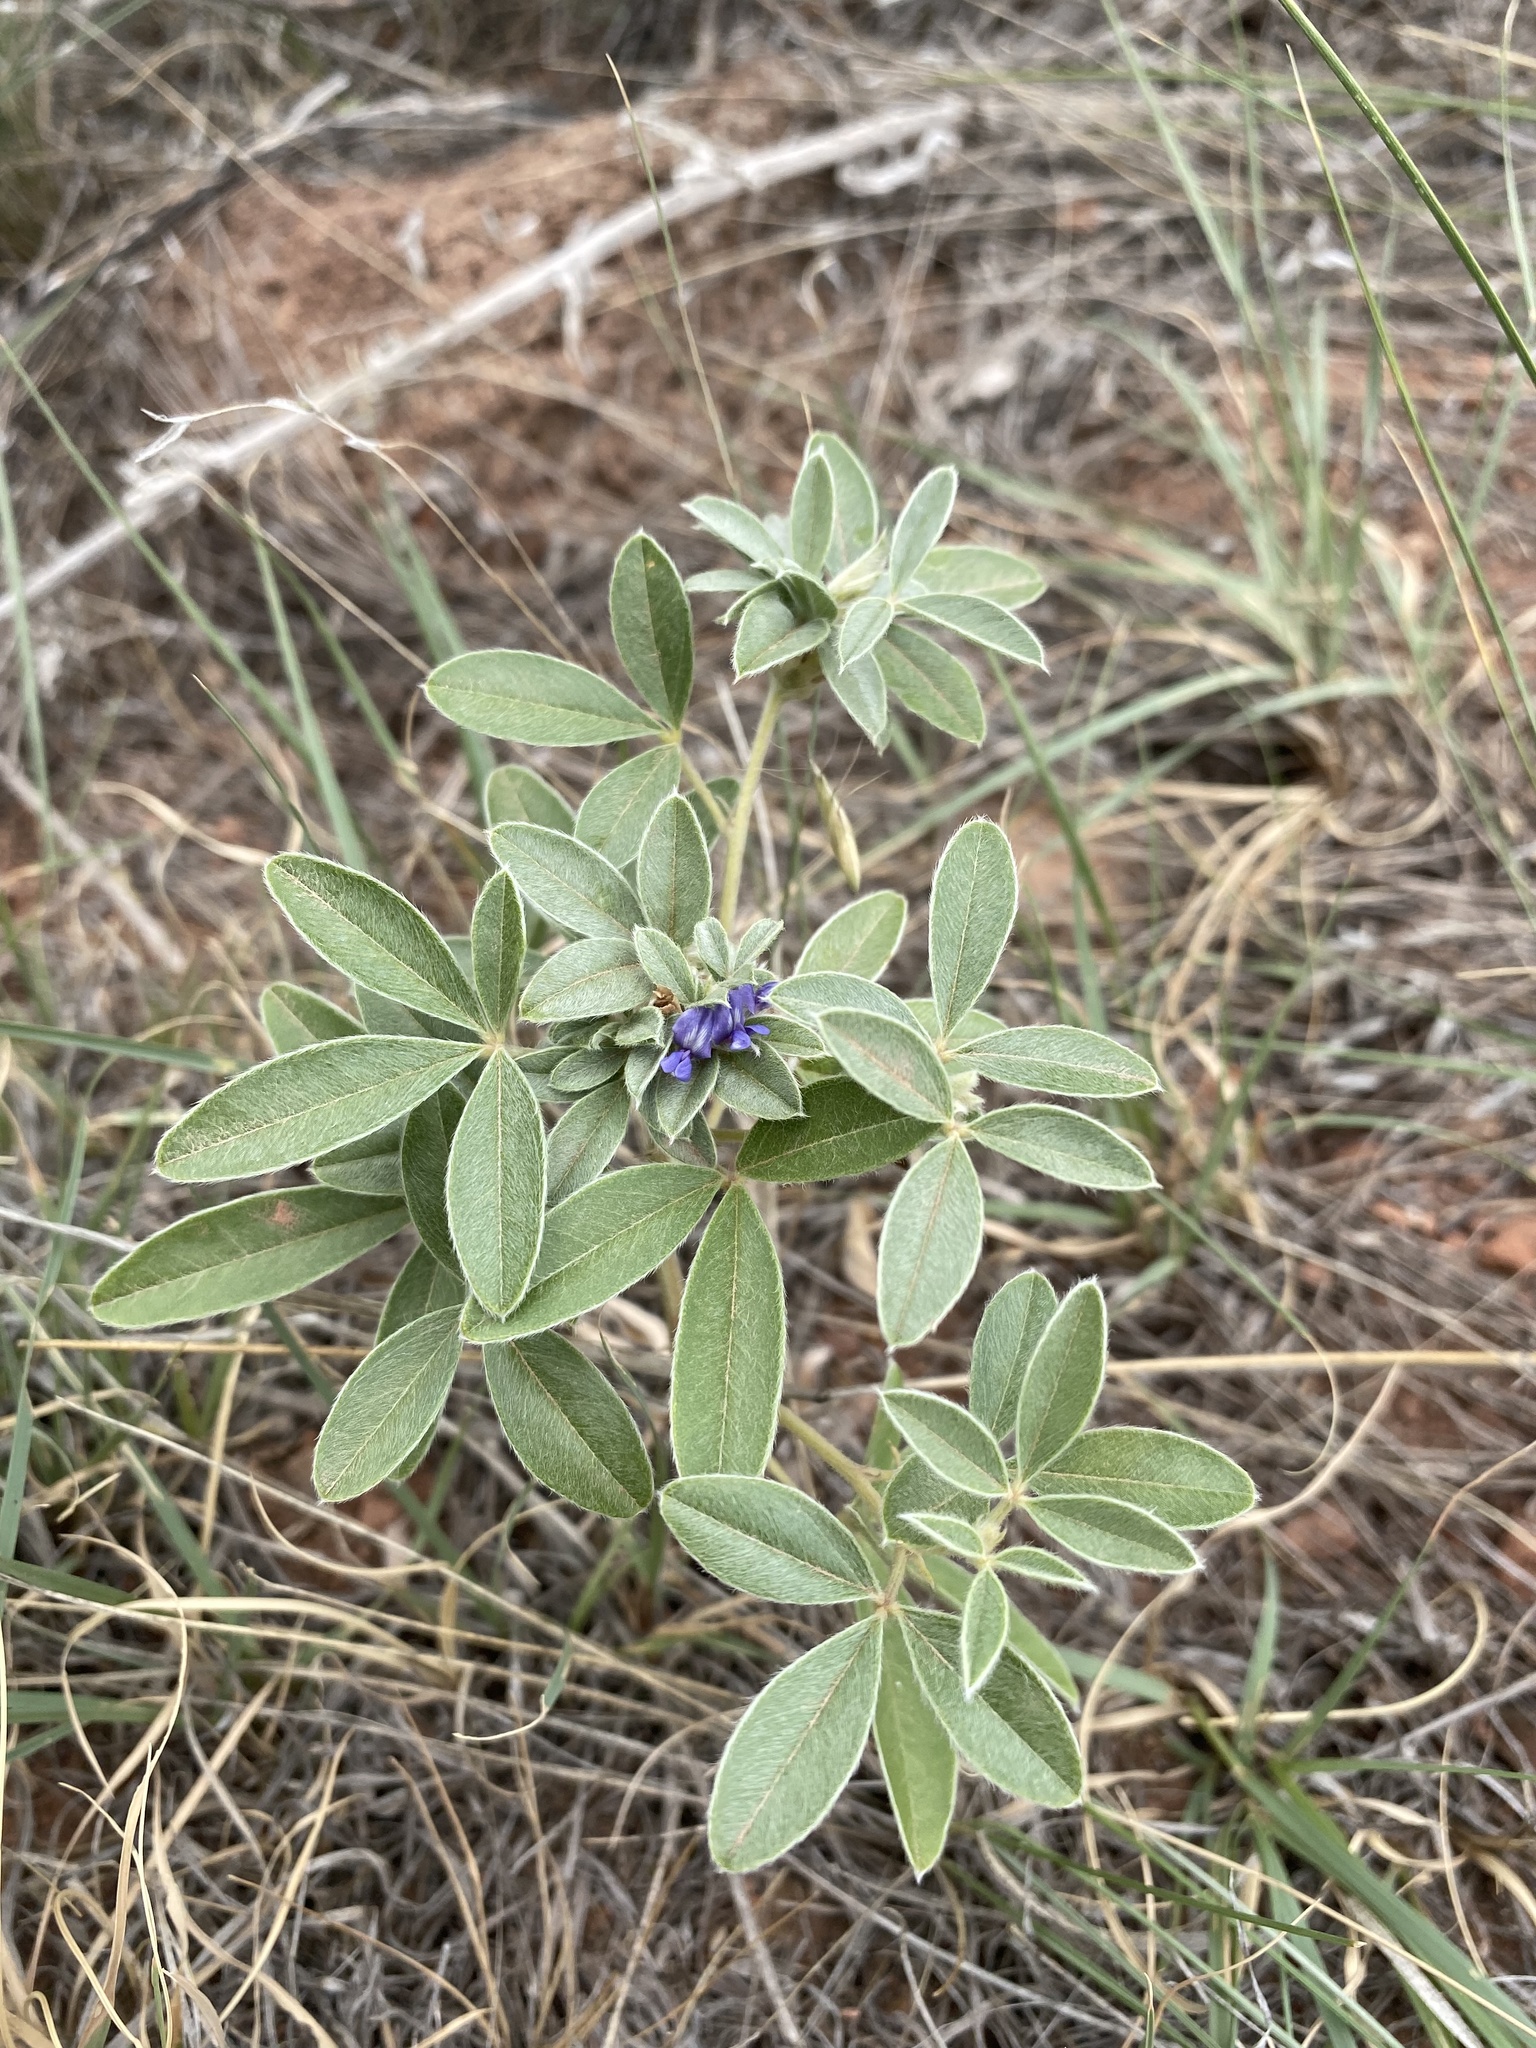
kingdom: Plantae
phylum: Tracheophyta
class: Magnoliopsida
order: Fabales
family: Fabaceae
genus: Pediomelum
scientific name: Pediomelum argophyllum
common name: Silver-leaved indian breadroot
